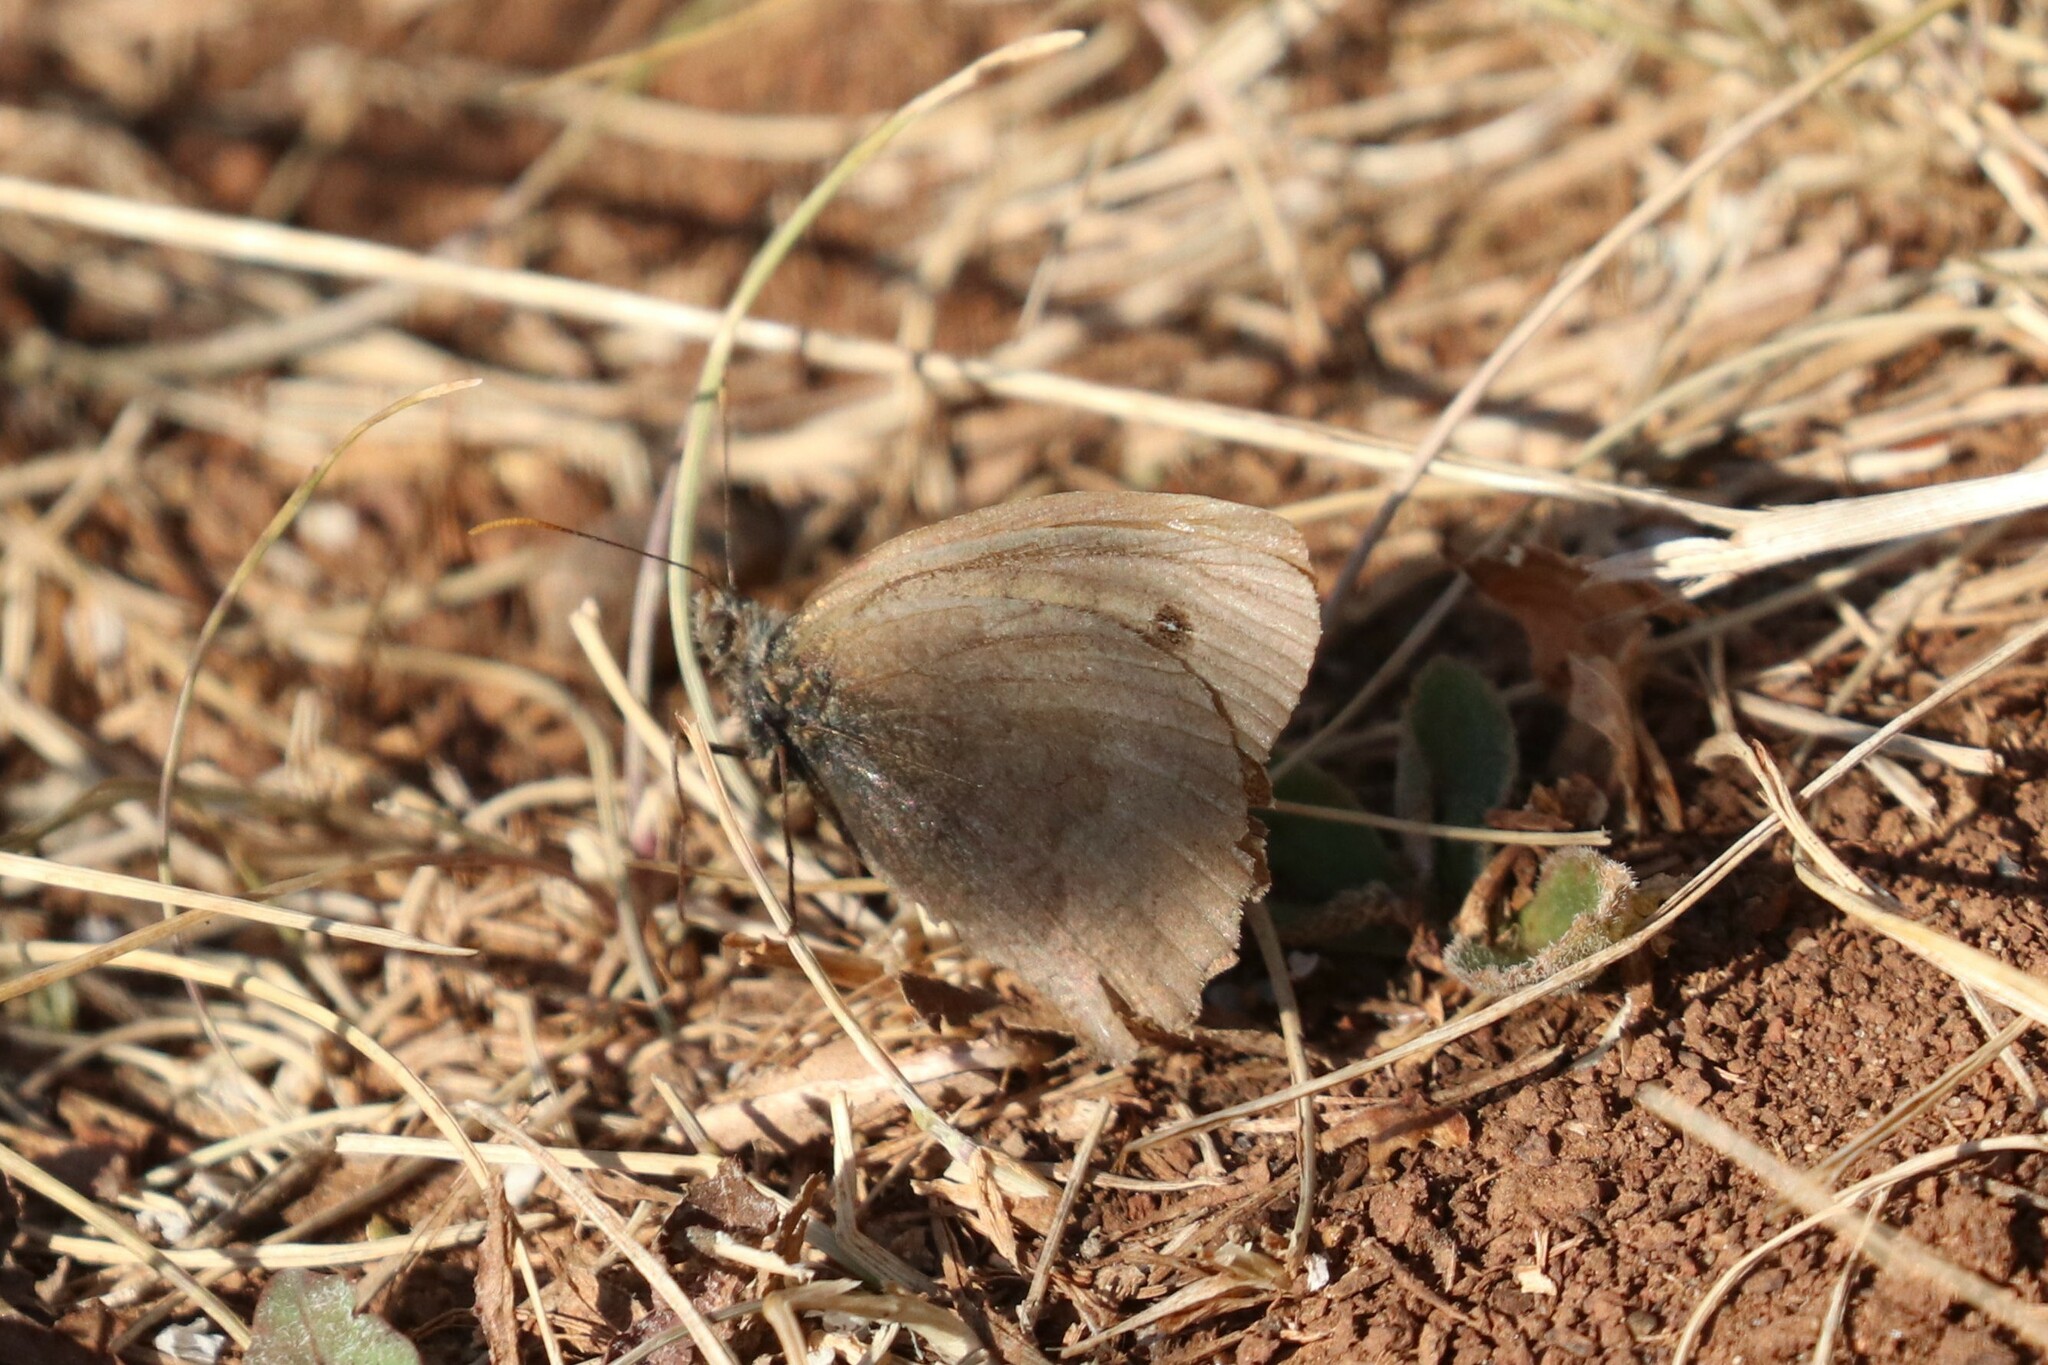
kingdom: Animalia
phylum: Arthropoda
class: Insecta
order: Lepidoptera
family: Nymphalidae
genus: Maniola
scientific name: Maniola jurtina
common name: Meadow brown
